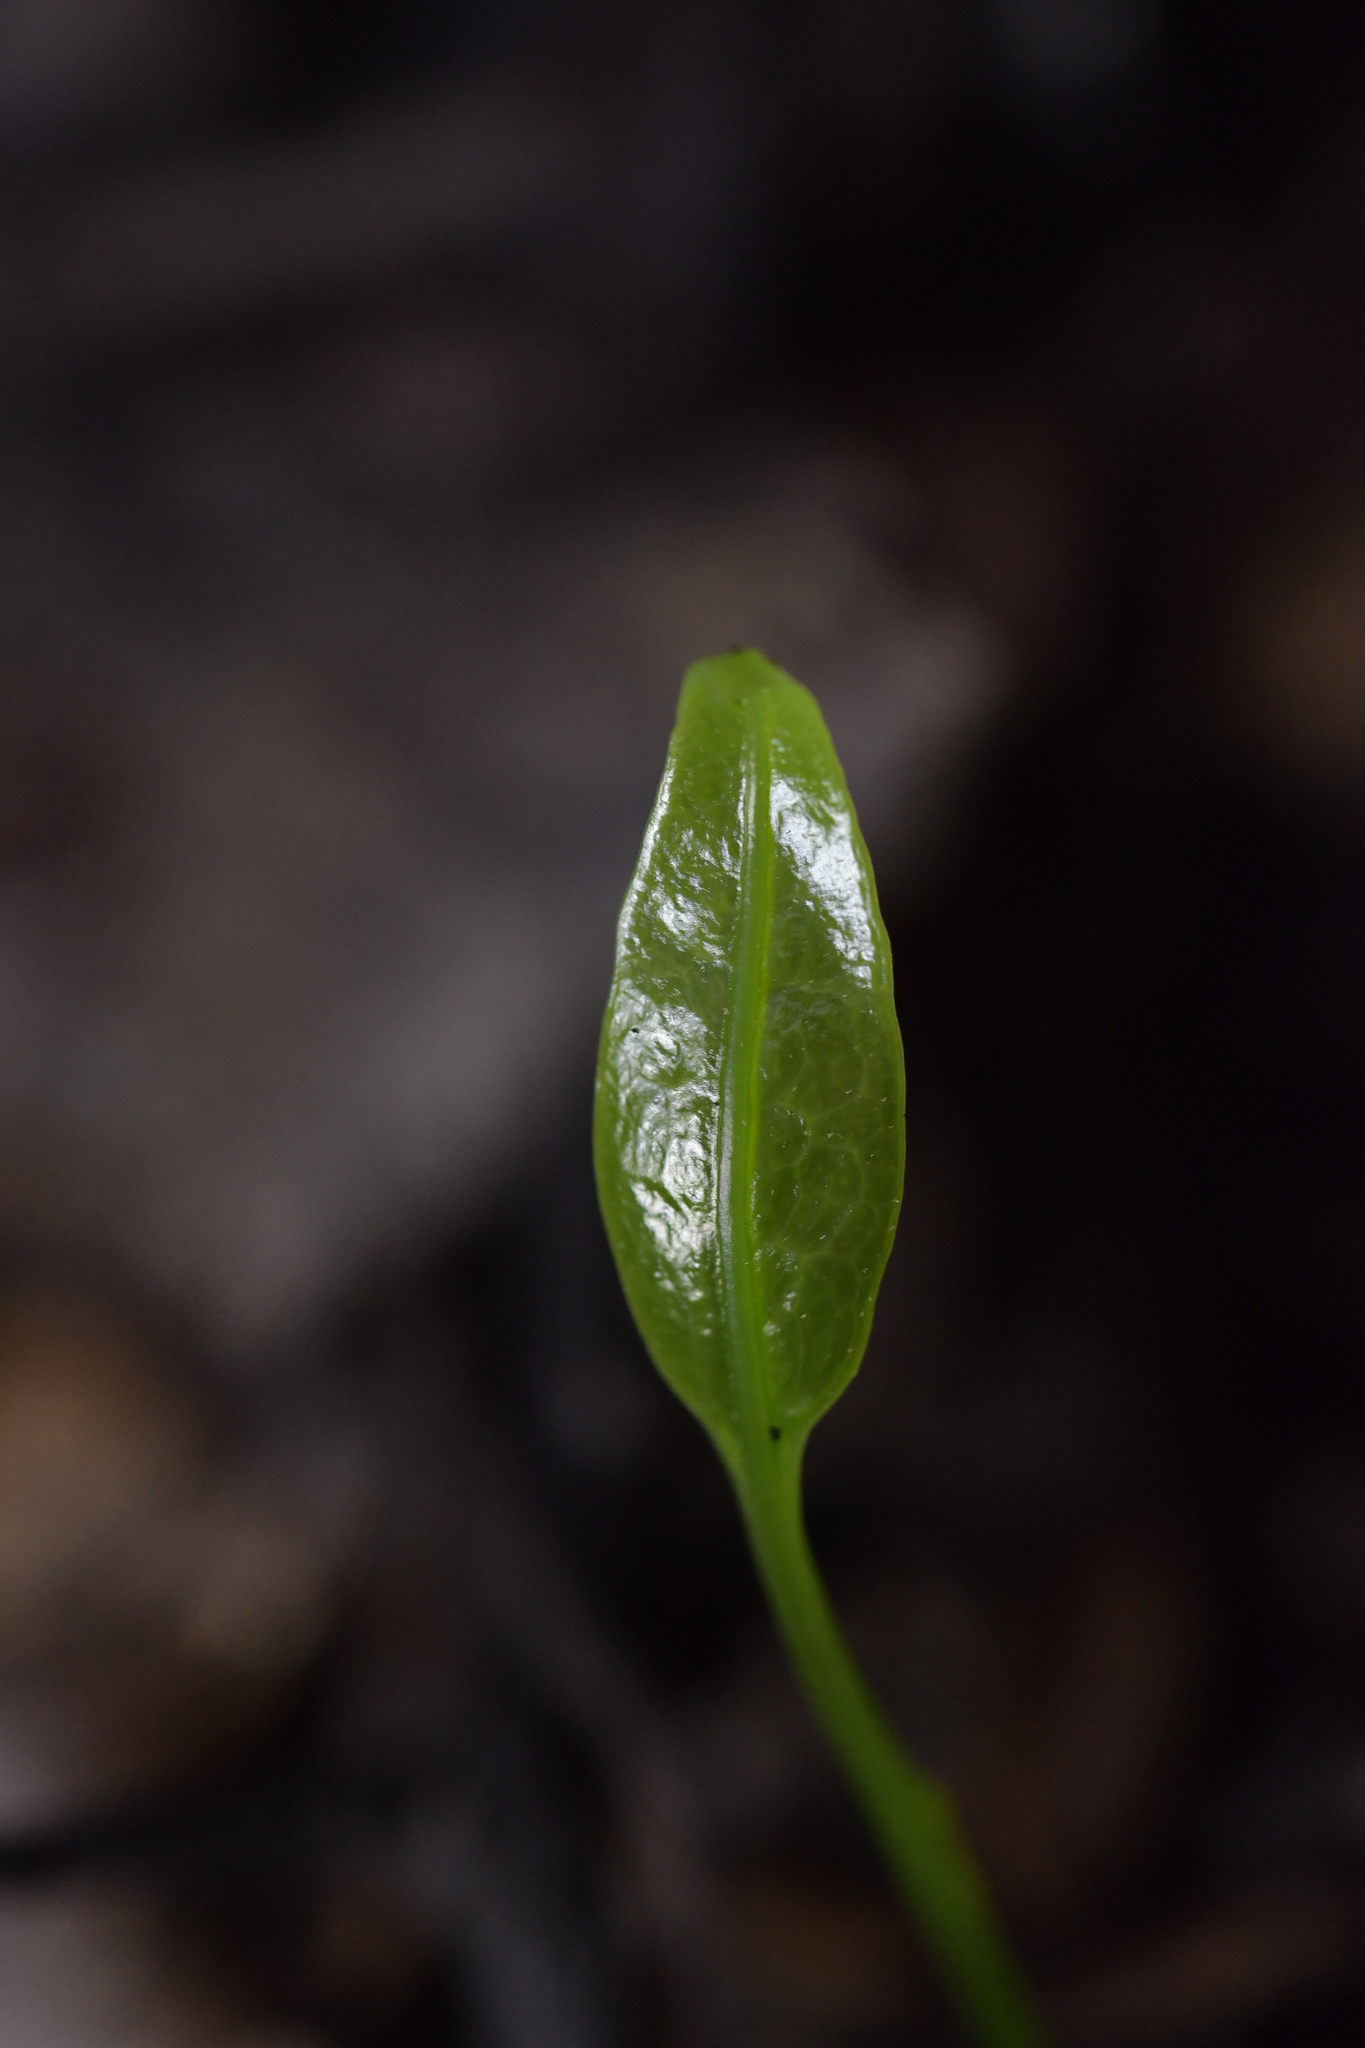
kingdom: Plantae
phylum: Tracheophyta
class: Polypodiopsida
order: Polypodiales
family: Polypodiaceae
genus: Lecanopteris
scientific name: Lecanopteris pustulata
